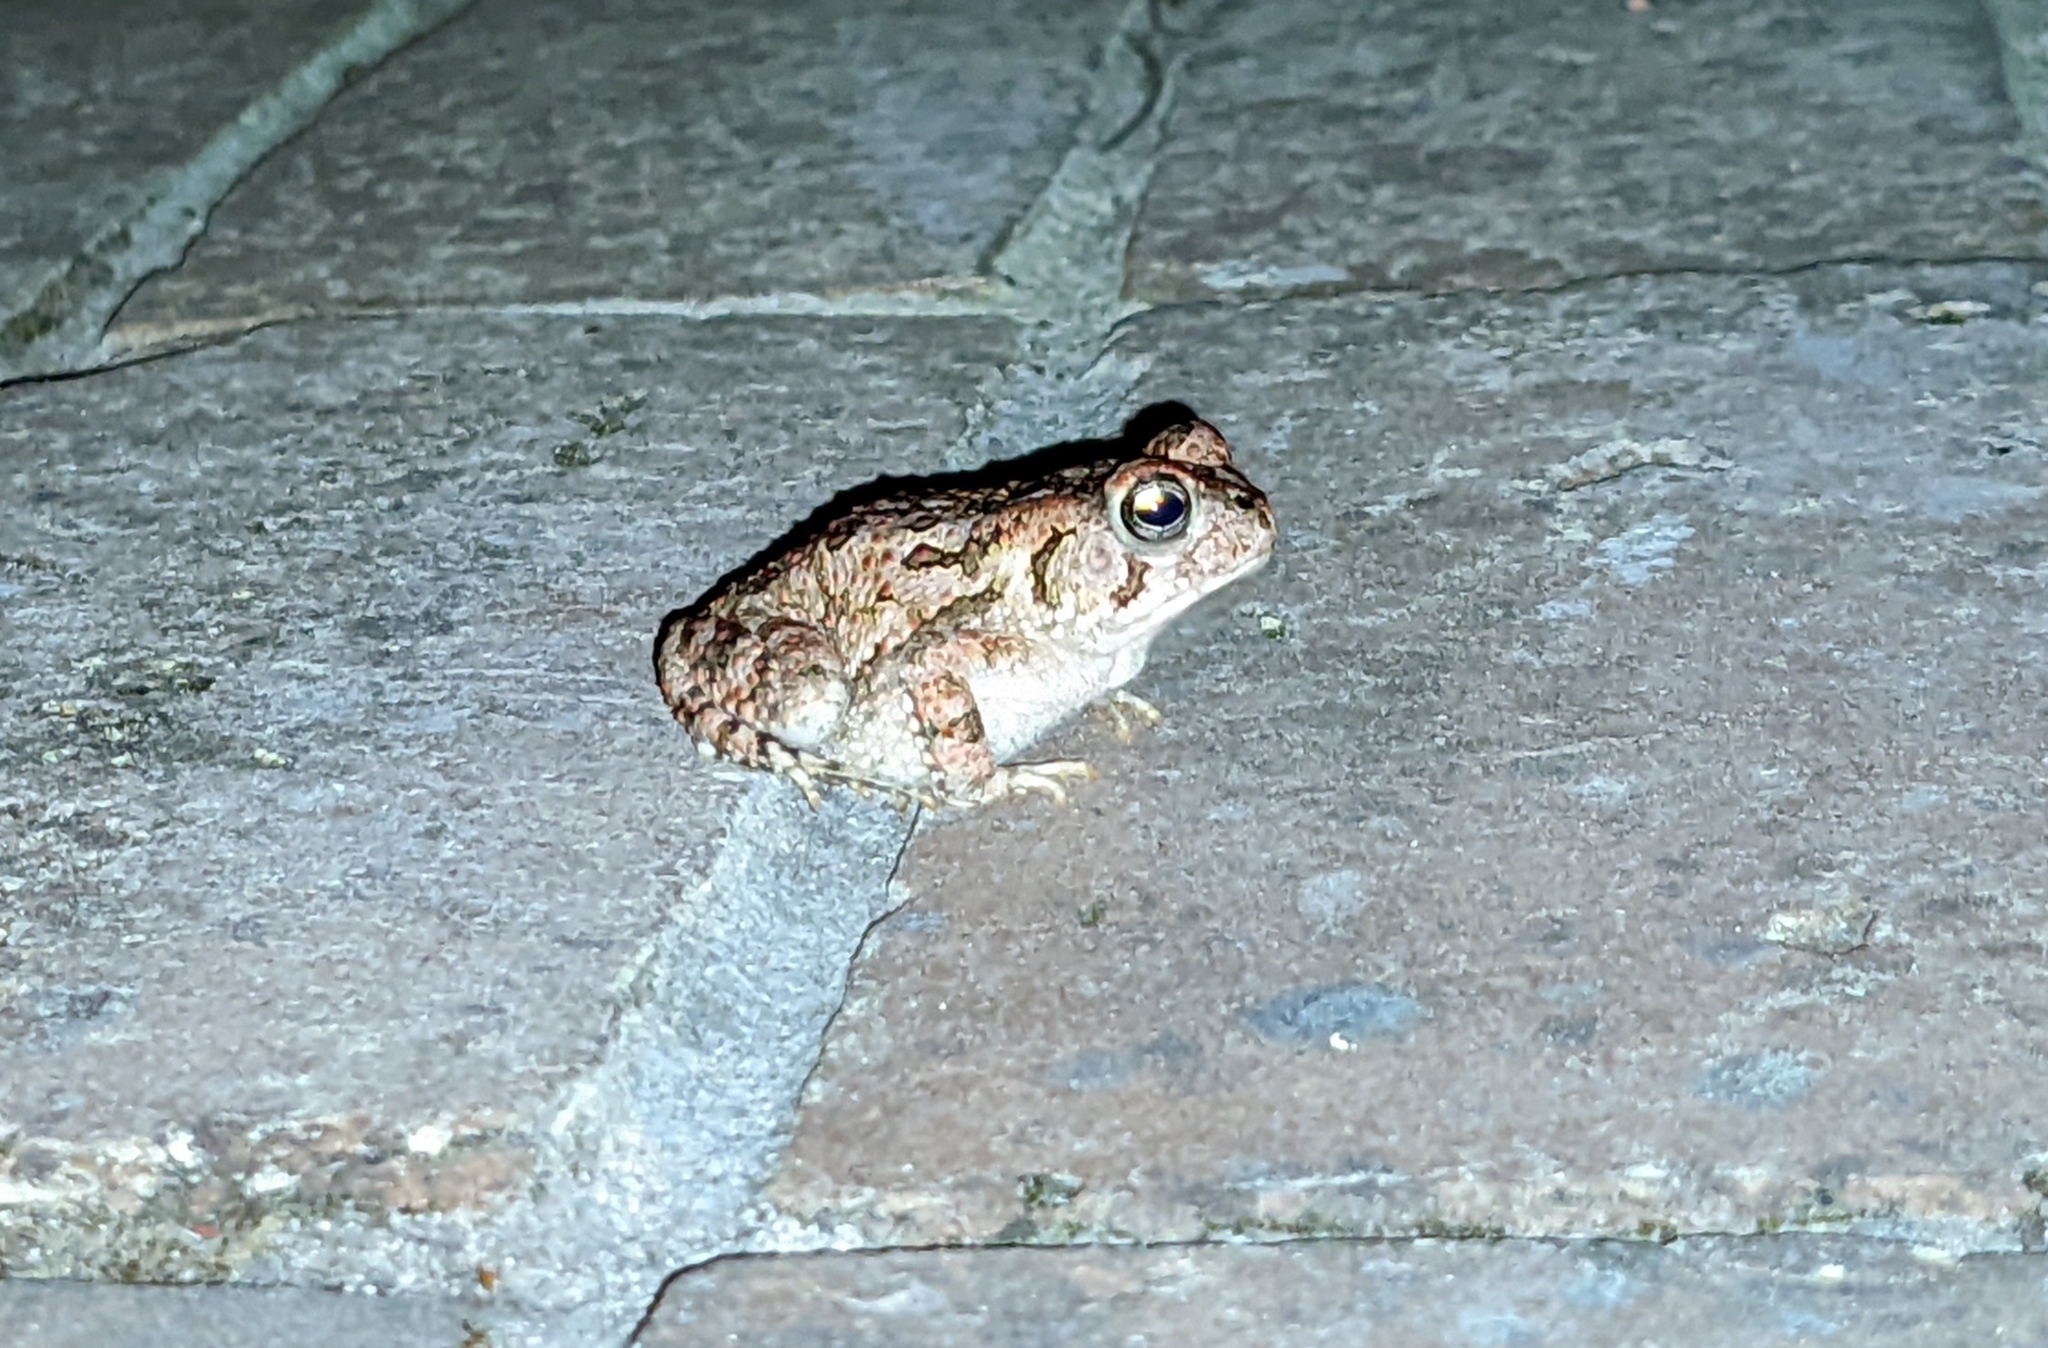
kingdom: Animalia
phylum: Chordata
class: Amphibia
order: Anura
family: Bufonidae
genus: Anaxyrus
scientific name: Anaxyrus fowleri
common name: Fowler's toad
